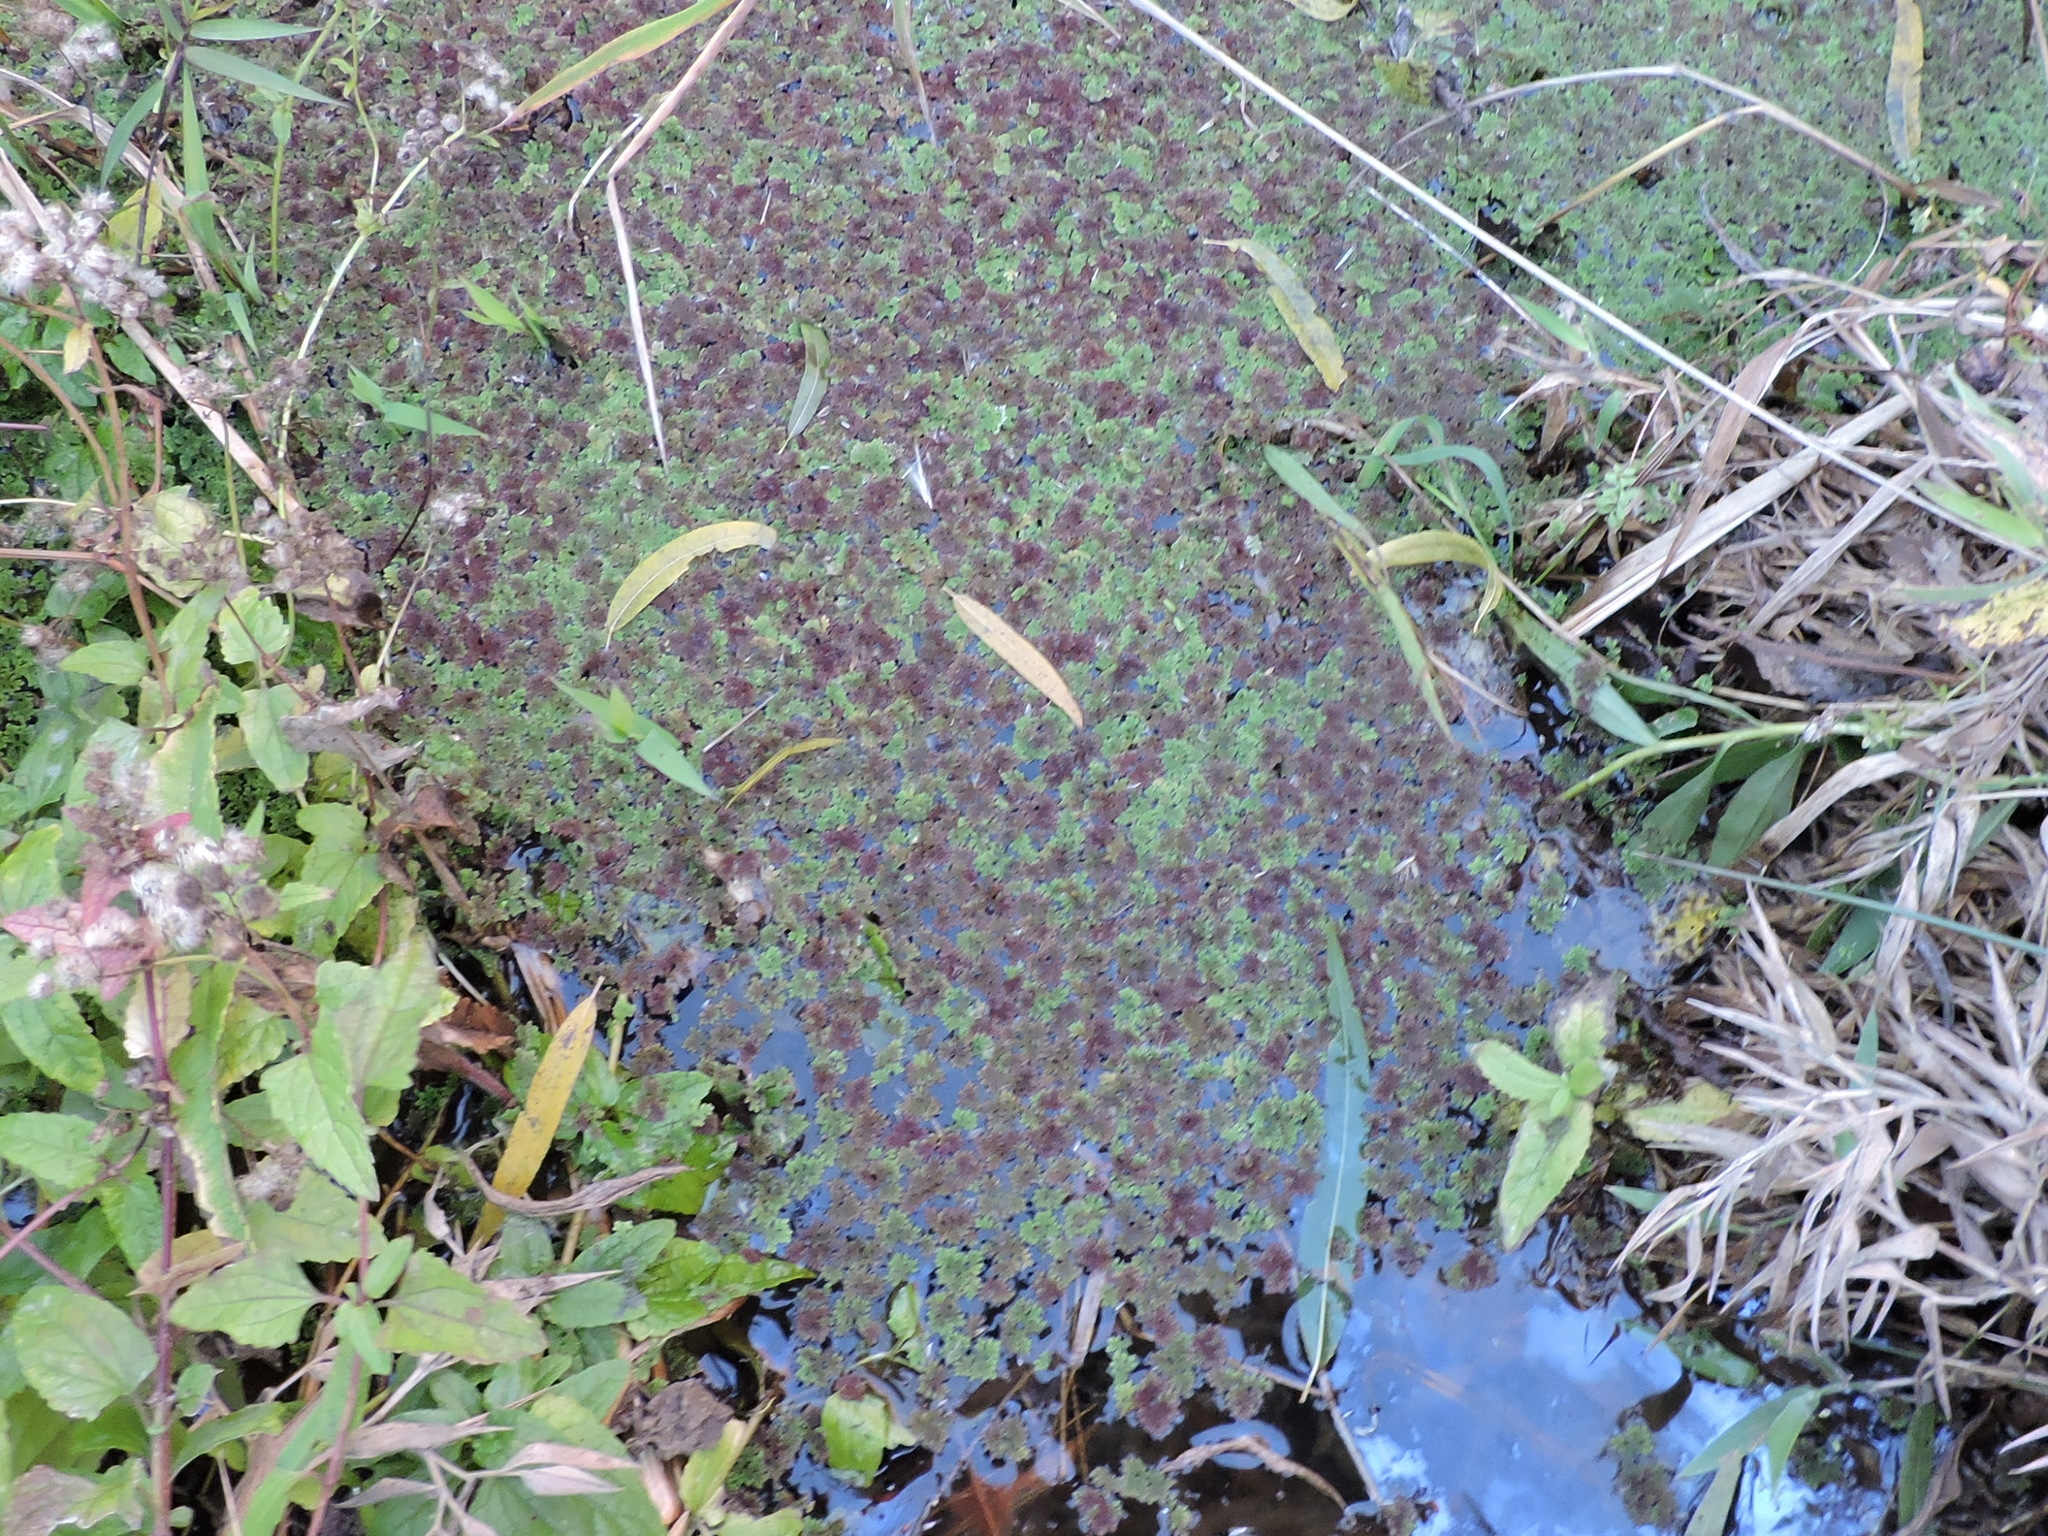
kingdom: Plantae
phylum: Tracheophyta
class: Polypodiopsida
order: Salviniales
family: Salviniaceae
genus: Azolla
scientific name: Azolla caroliniana
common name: Carolina mosquitofern
